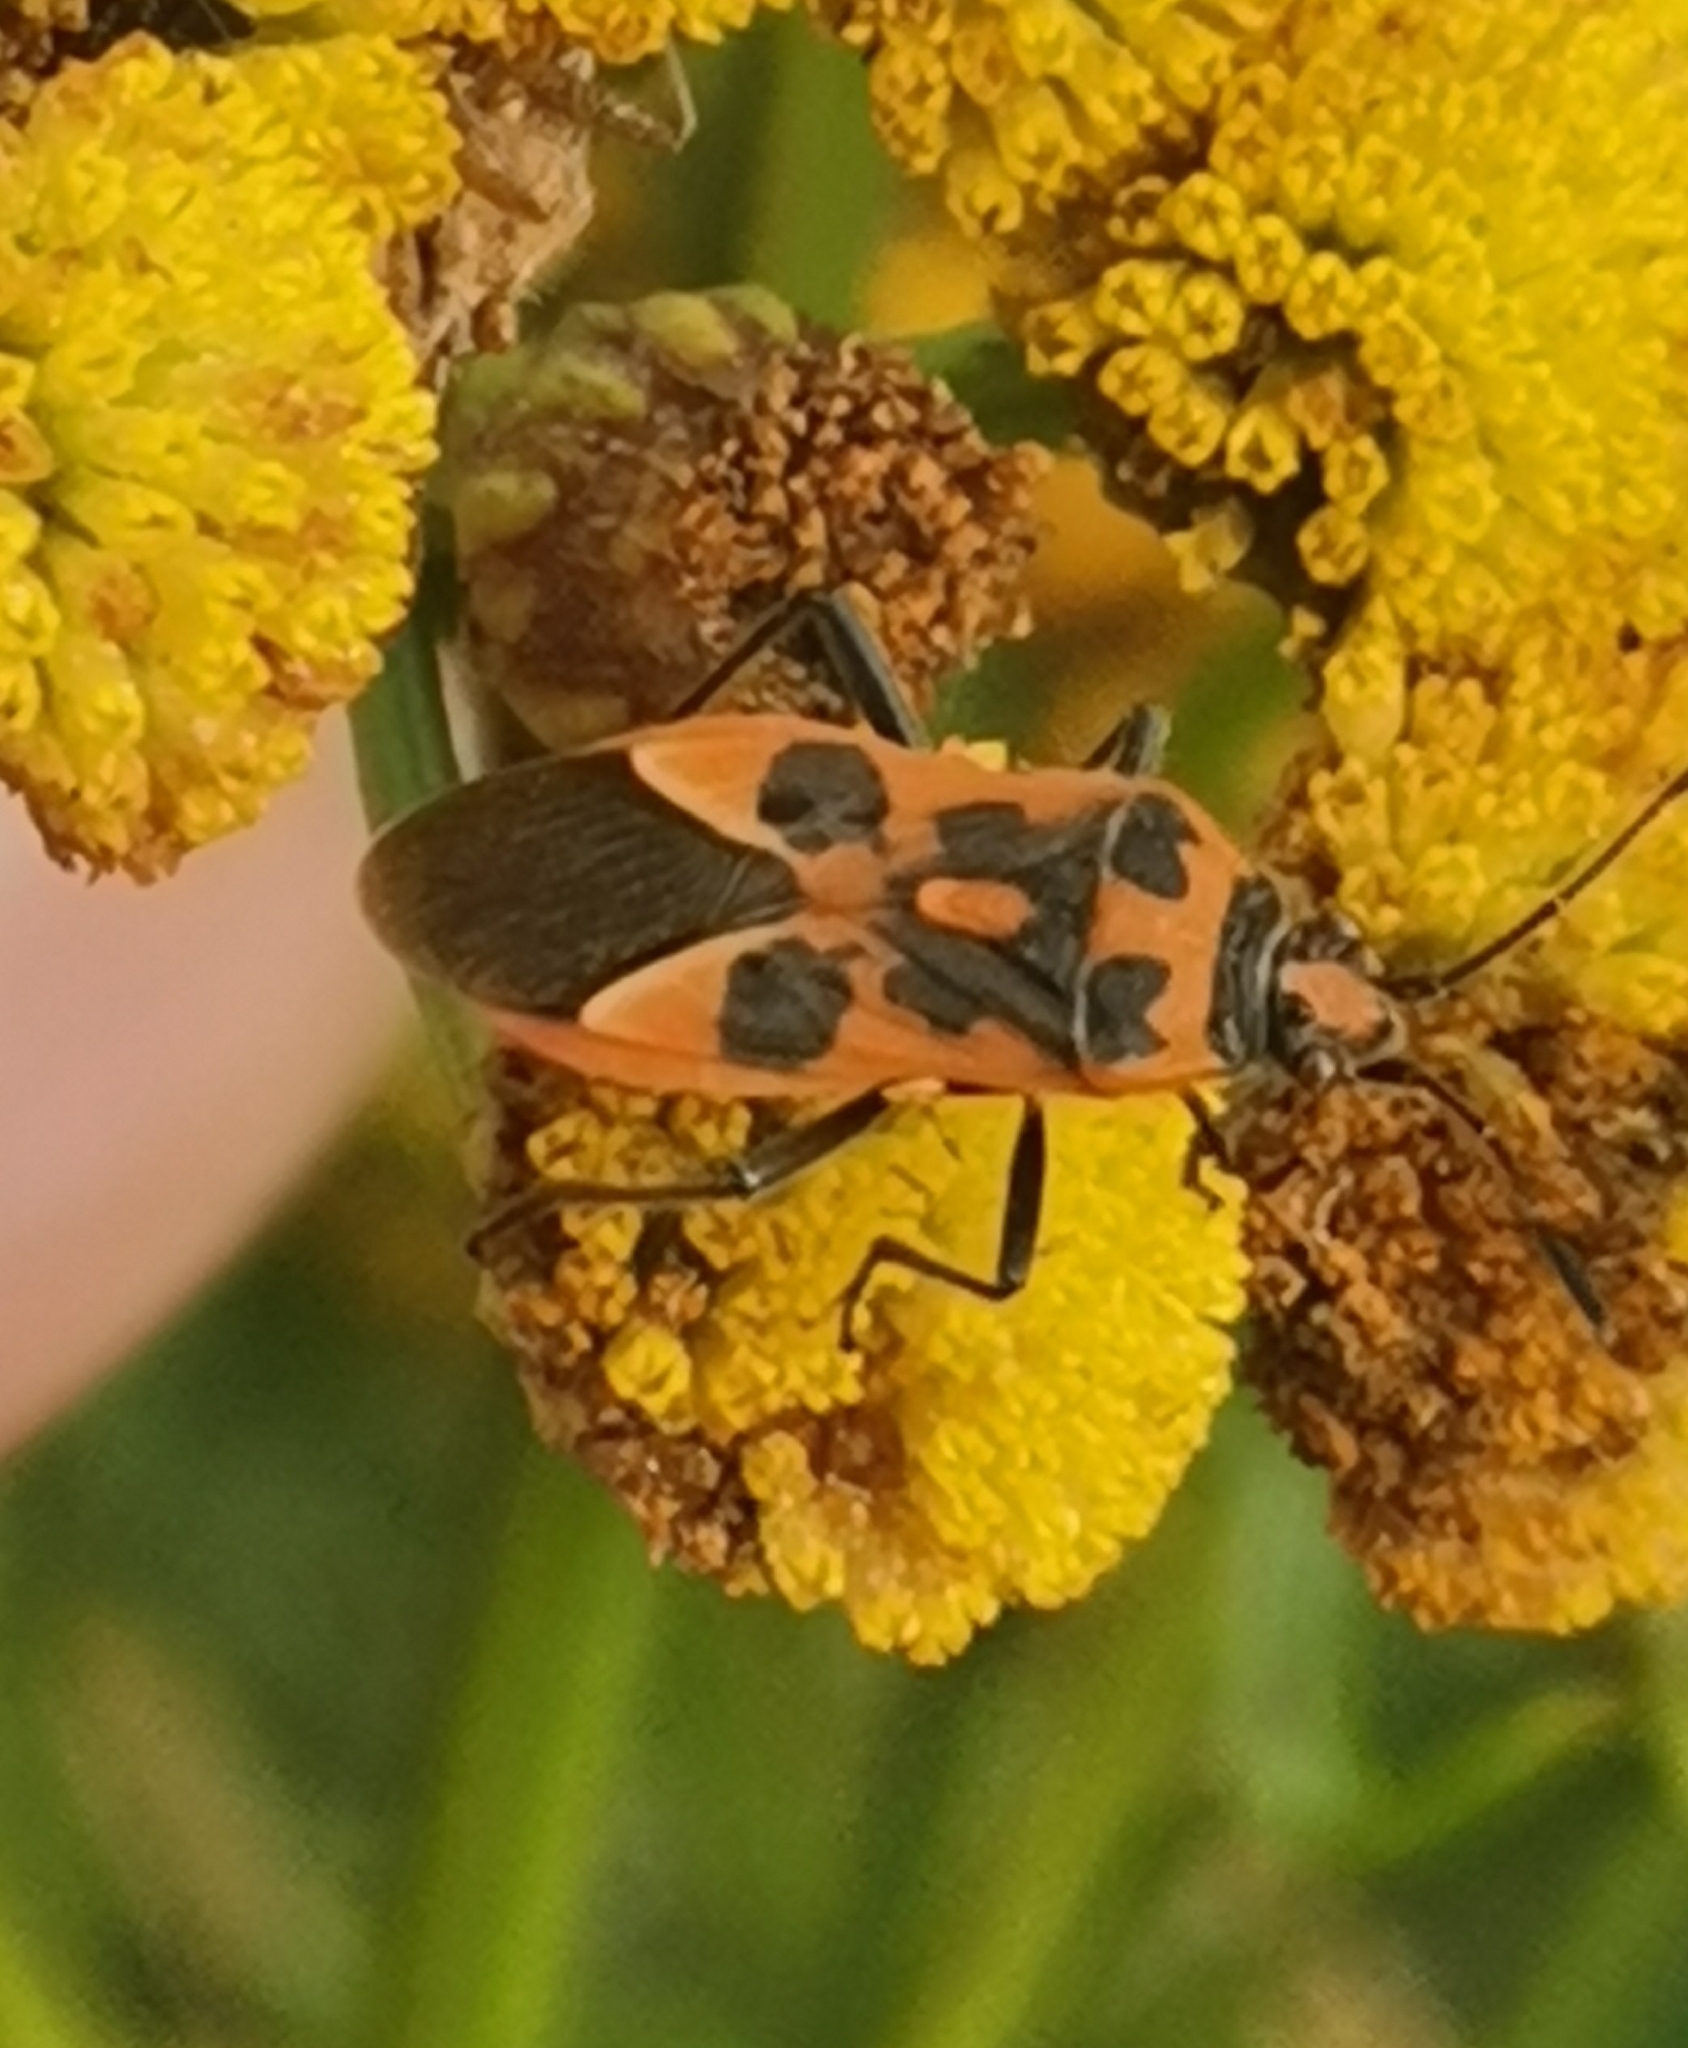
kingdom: Animalia
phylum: Arthropoda
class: Insecta
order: Hemiptera
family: Rhopalidae
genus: Corizus
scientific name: Corizus hyoscyami
